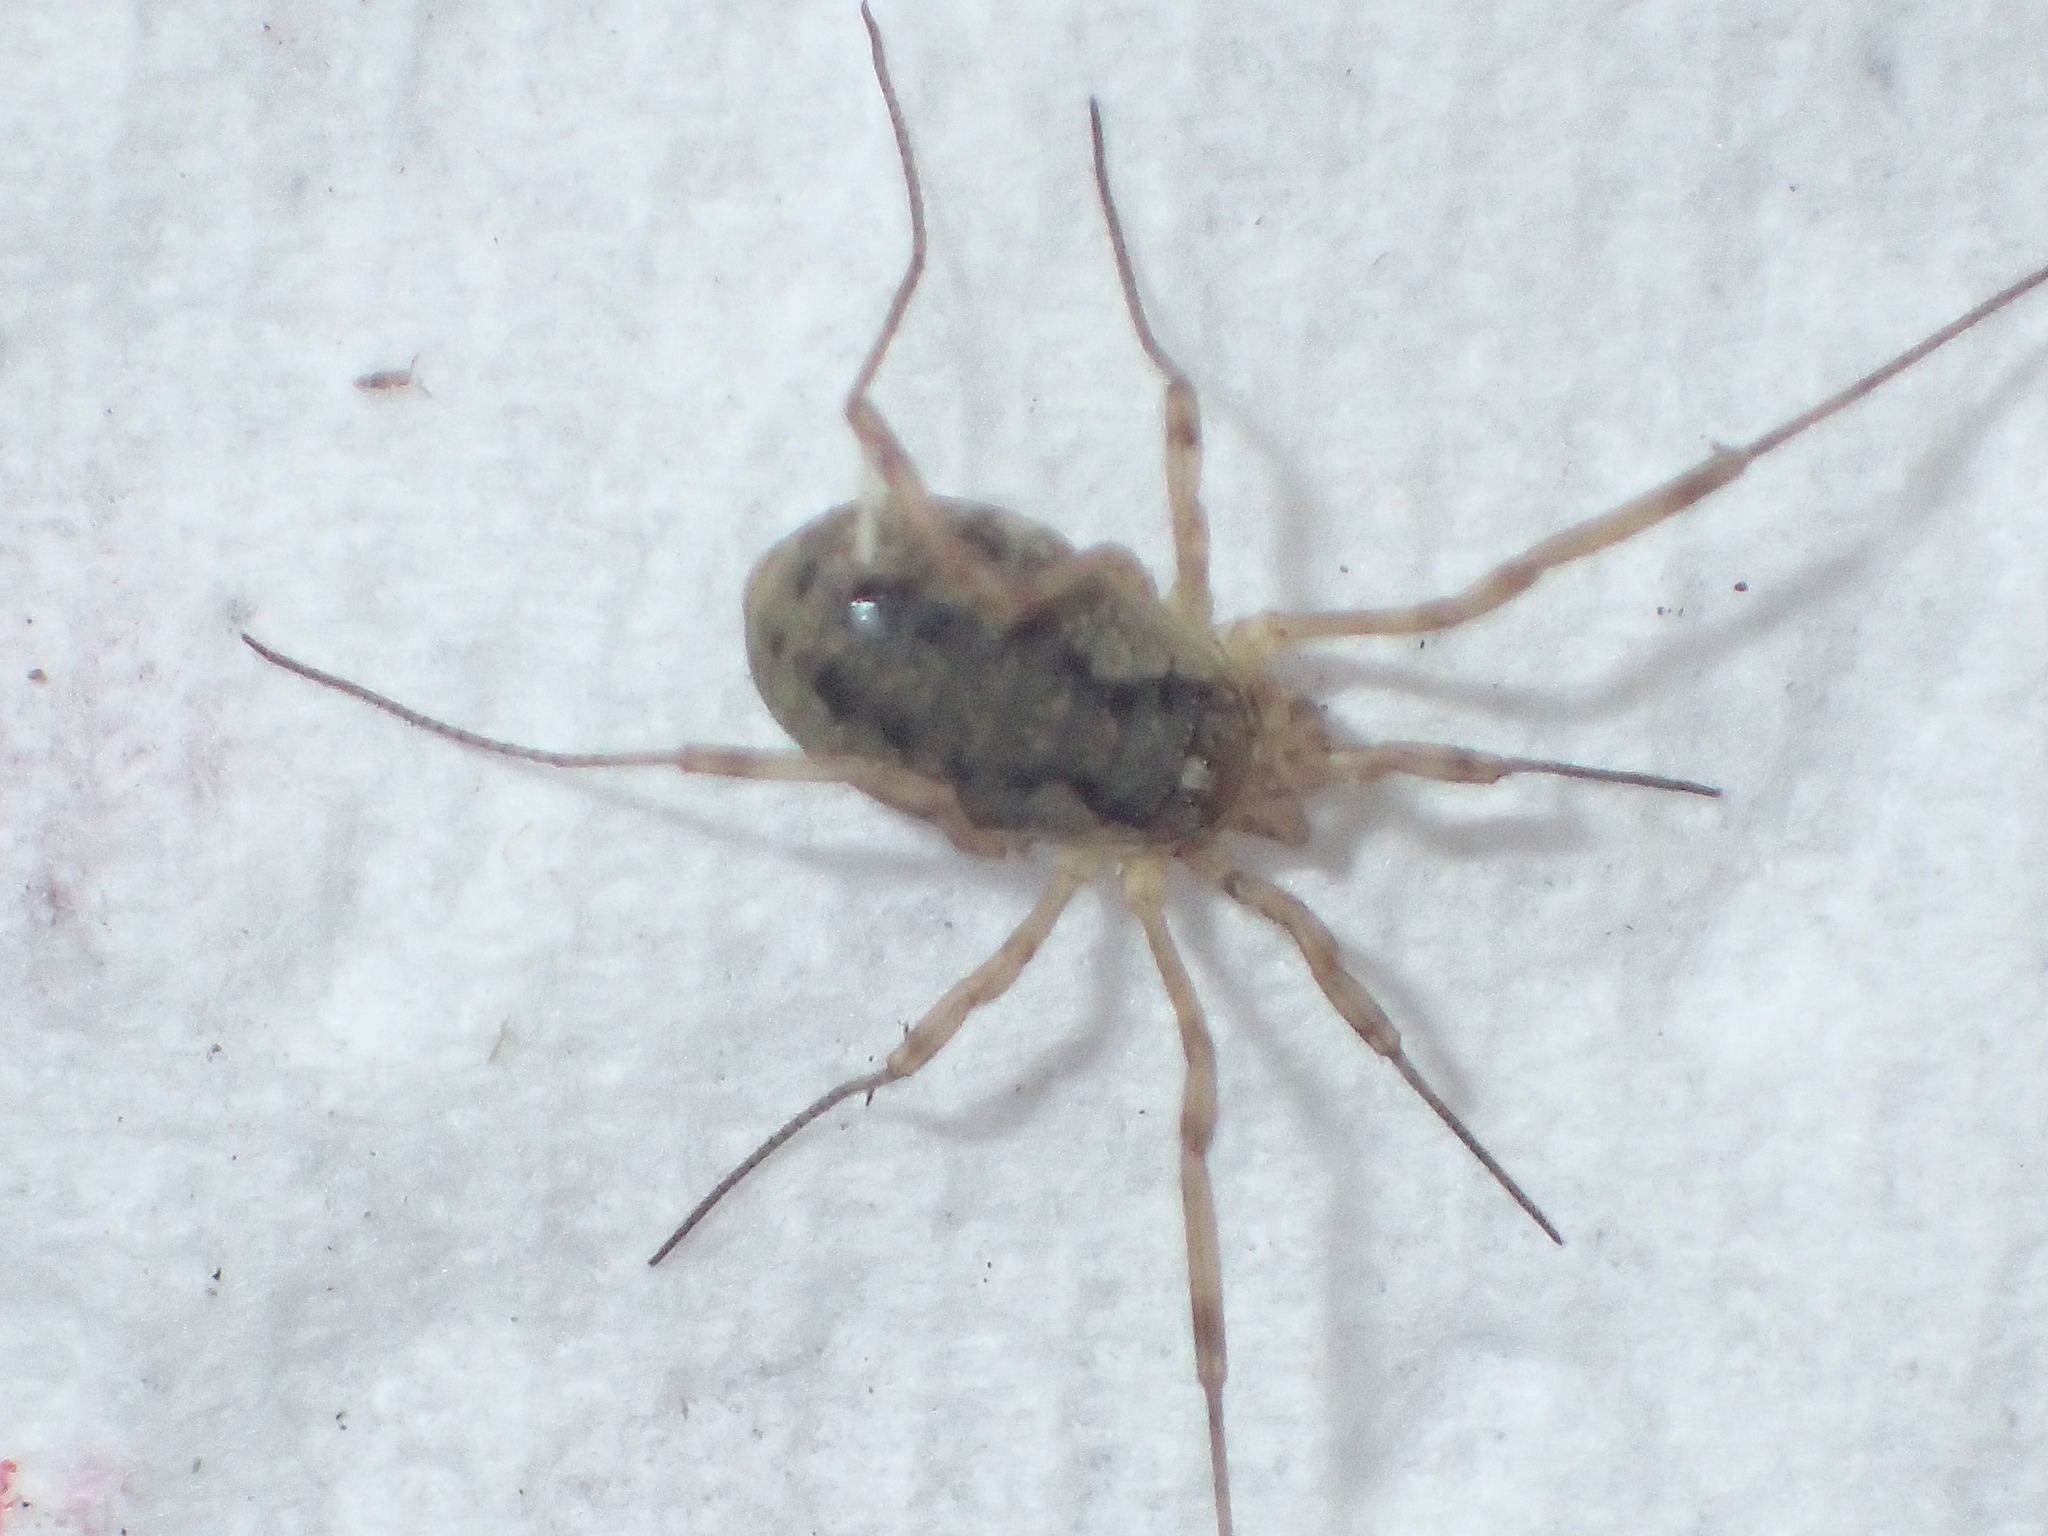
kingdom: Animalia
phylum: Arthropoda
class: Arachnida
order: Opiliones
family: Phalangiidae
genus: Oligolophus
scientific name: Oligolophus tridens
